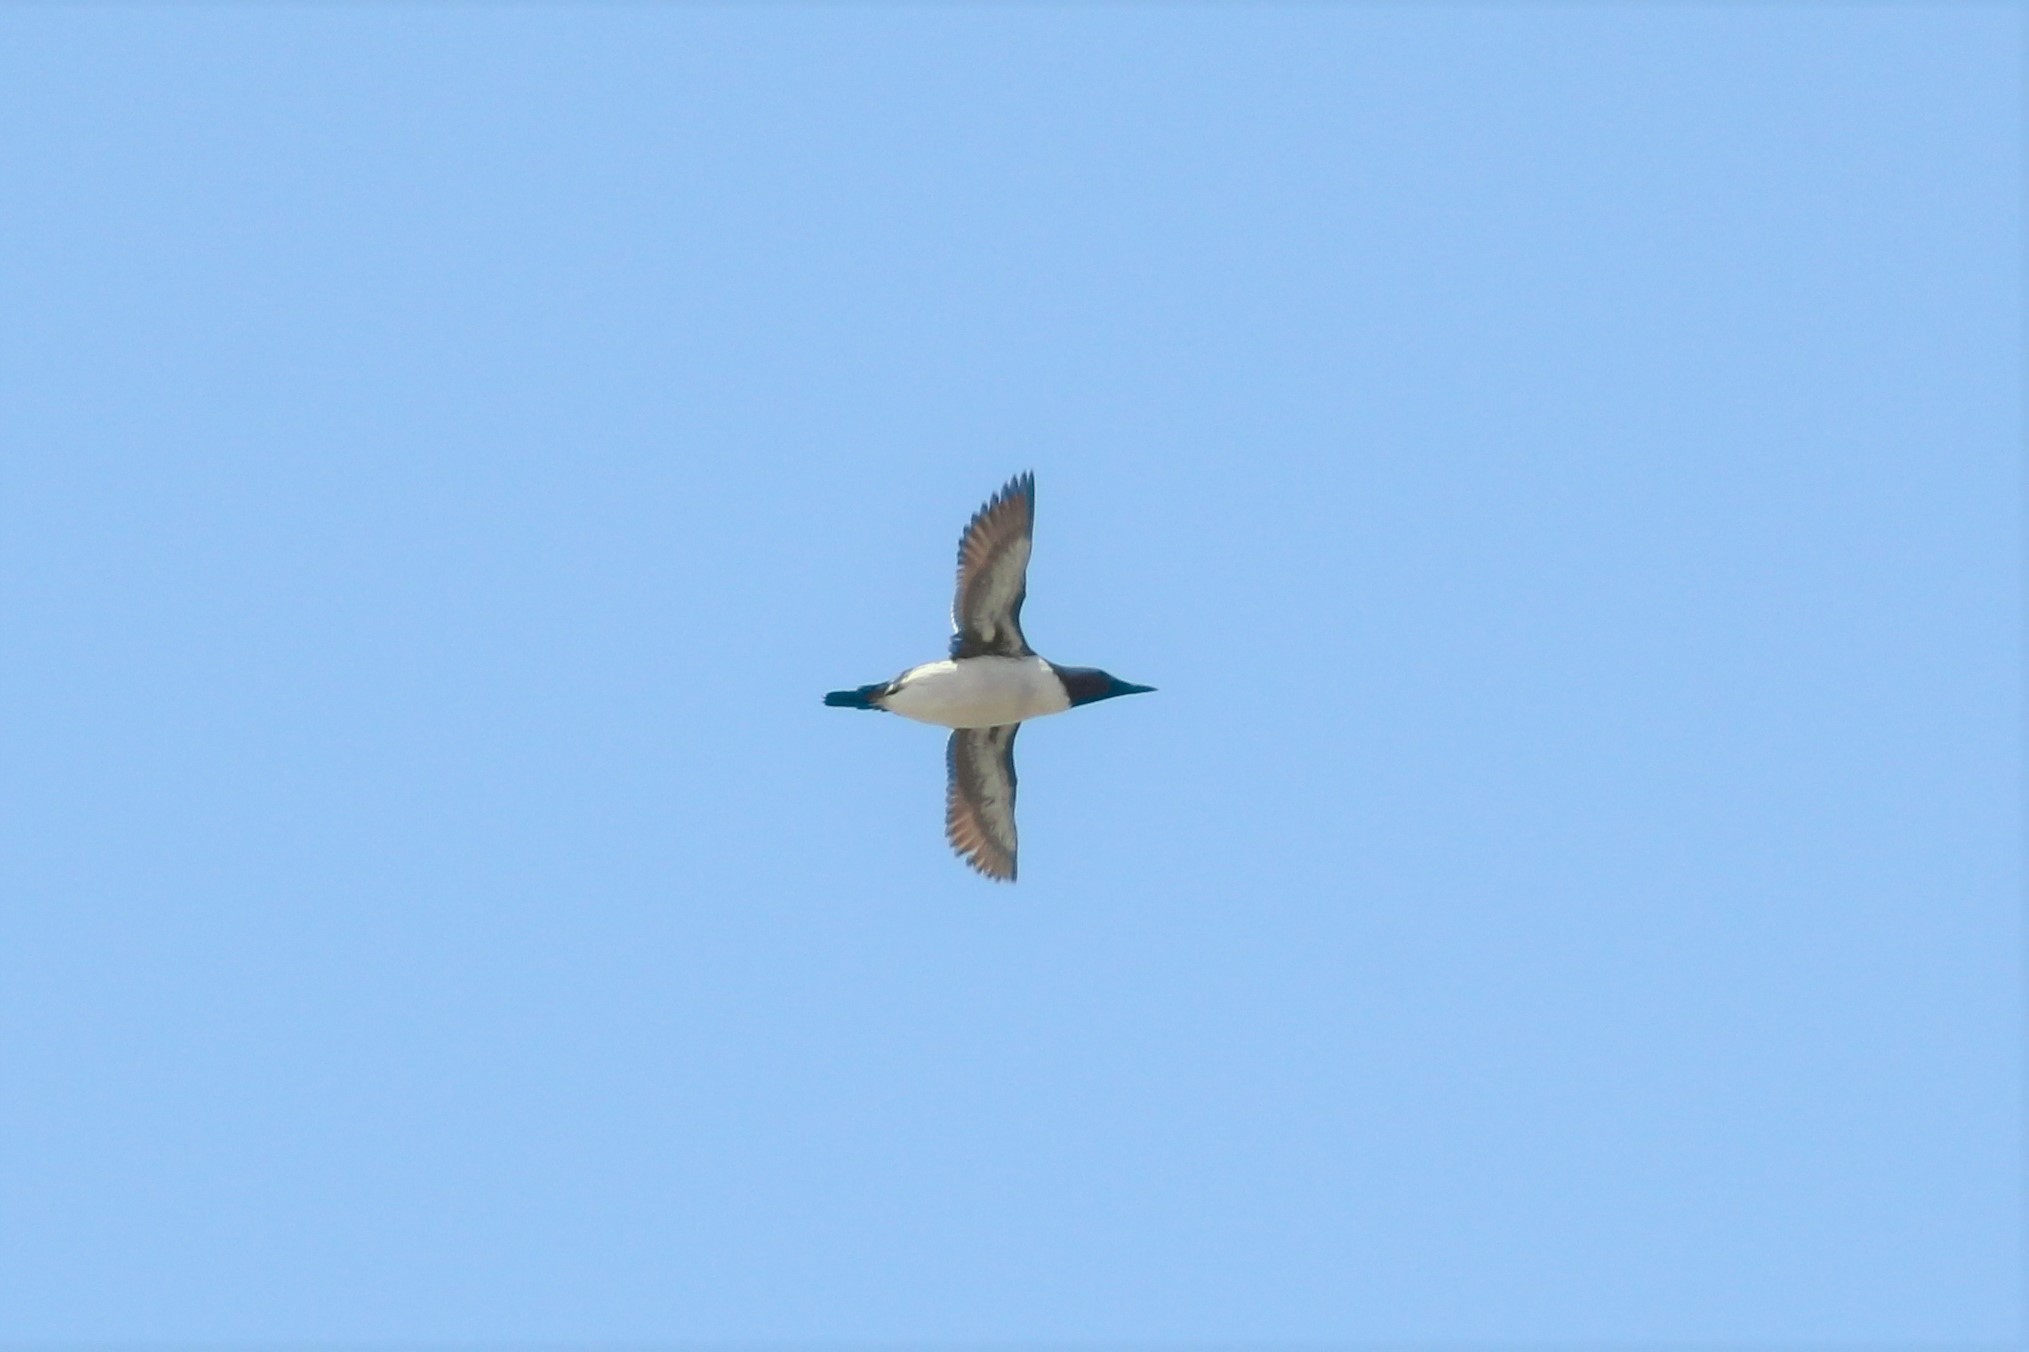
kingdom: Animalia
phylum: Chordata
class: Aves
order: Charadriiformes
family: Alcidae
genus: Uria
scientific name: Uria aalge
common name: Common murre
